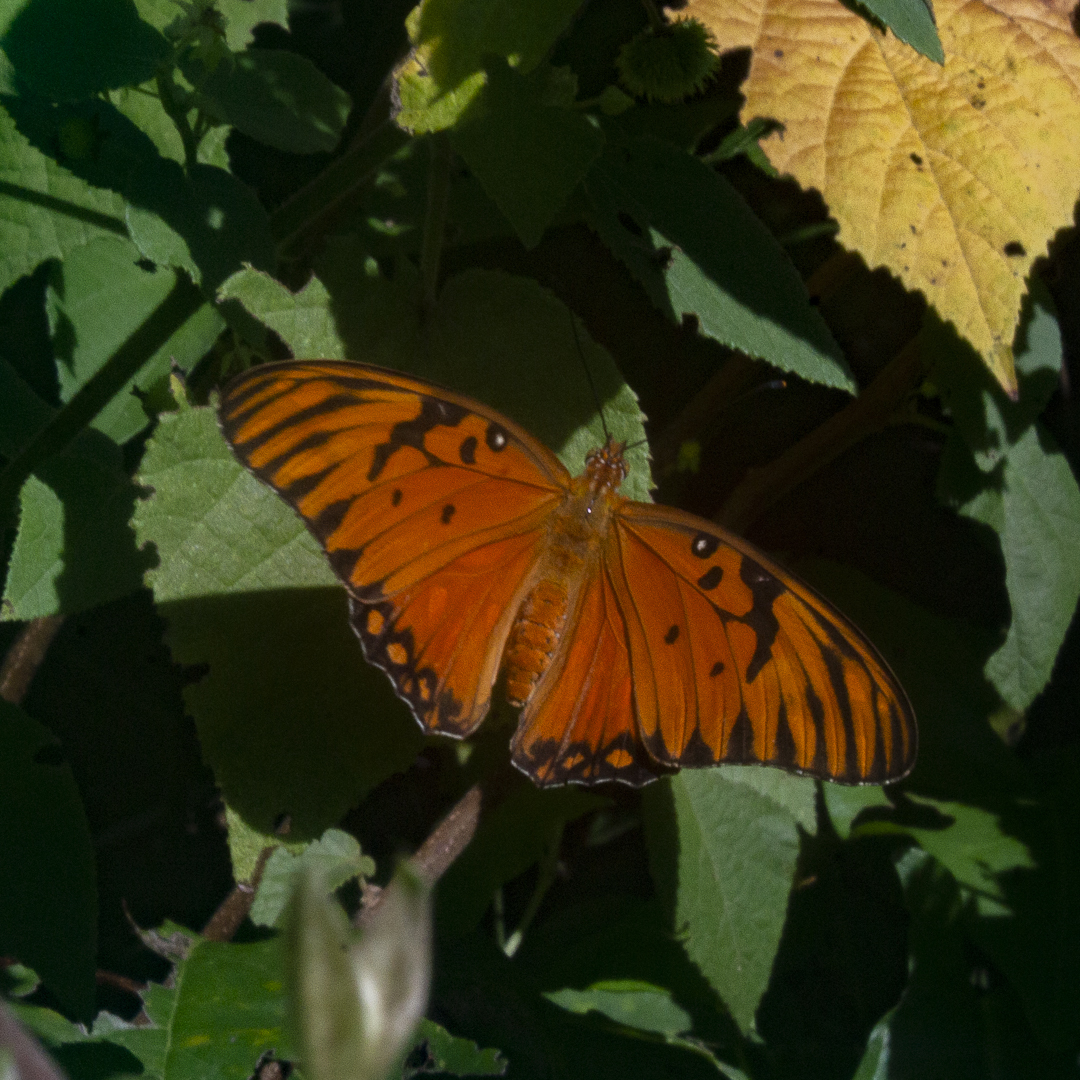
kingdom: Animalia
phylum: Arthropoda
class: Insecta
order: Lepidoptera
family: Nymphalidae
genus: Dione
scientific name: Dione vanillae
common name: Gulf fritillary
